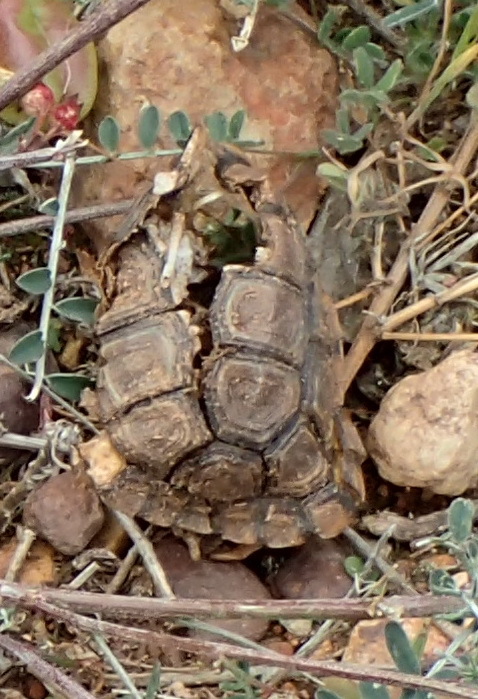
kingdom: Animalia
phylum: Chordata
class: Testudines
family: Testudinidae
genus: Stigmochelys
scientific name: Stigmochelys pardalis
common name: Leopard tortoise
